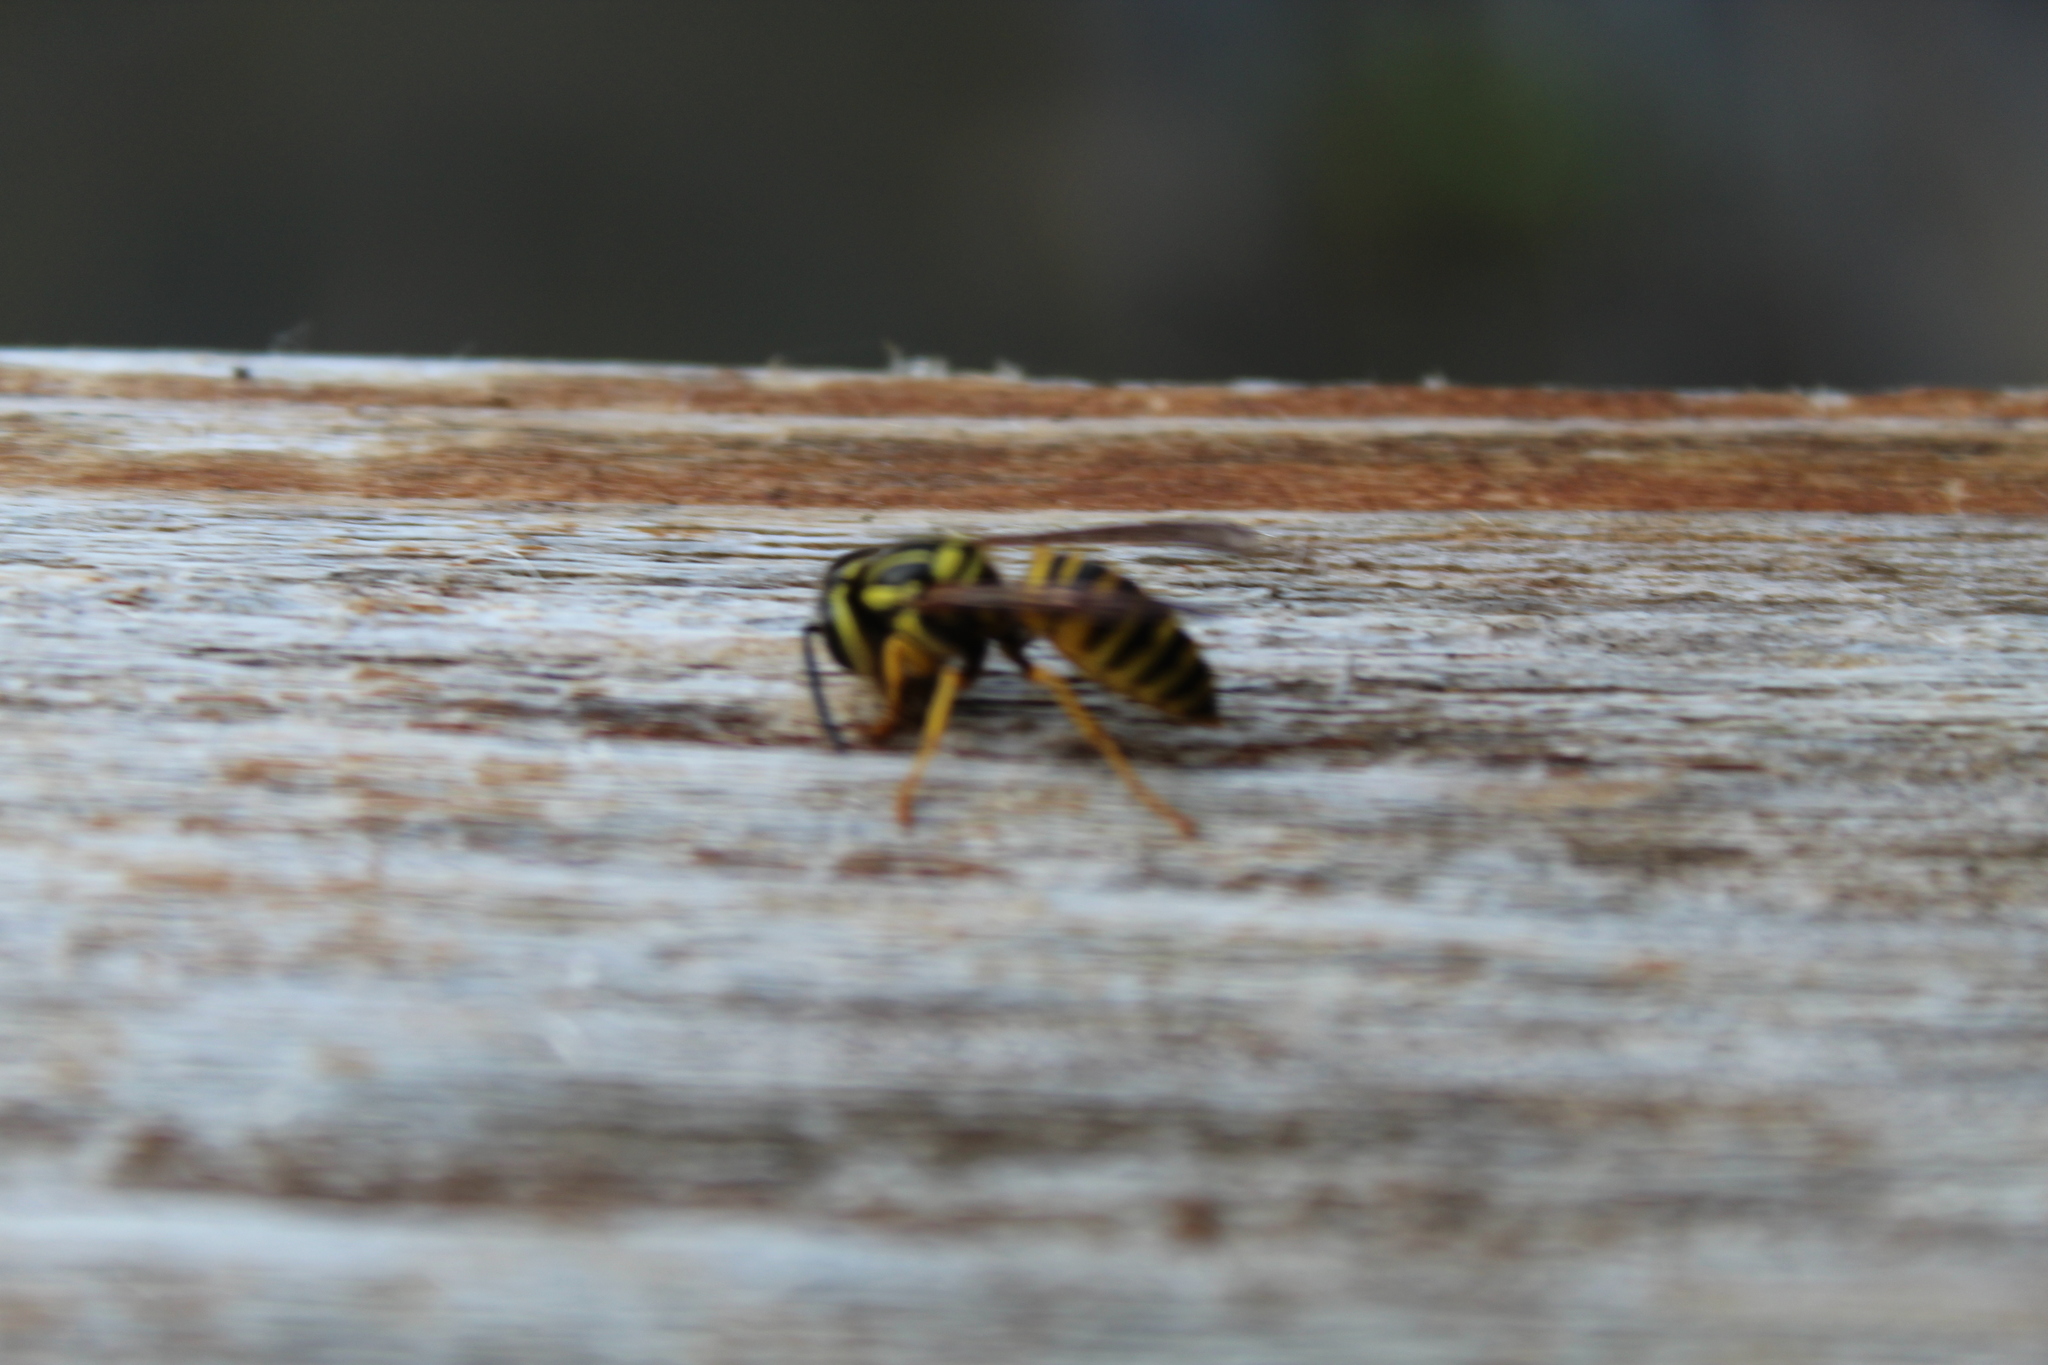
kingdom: Animalia
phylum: Arthropoda
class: Insecta
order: Hymenoptera
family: Vespidae
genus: Vespula
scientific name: Vespula squamosa
